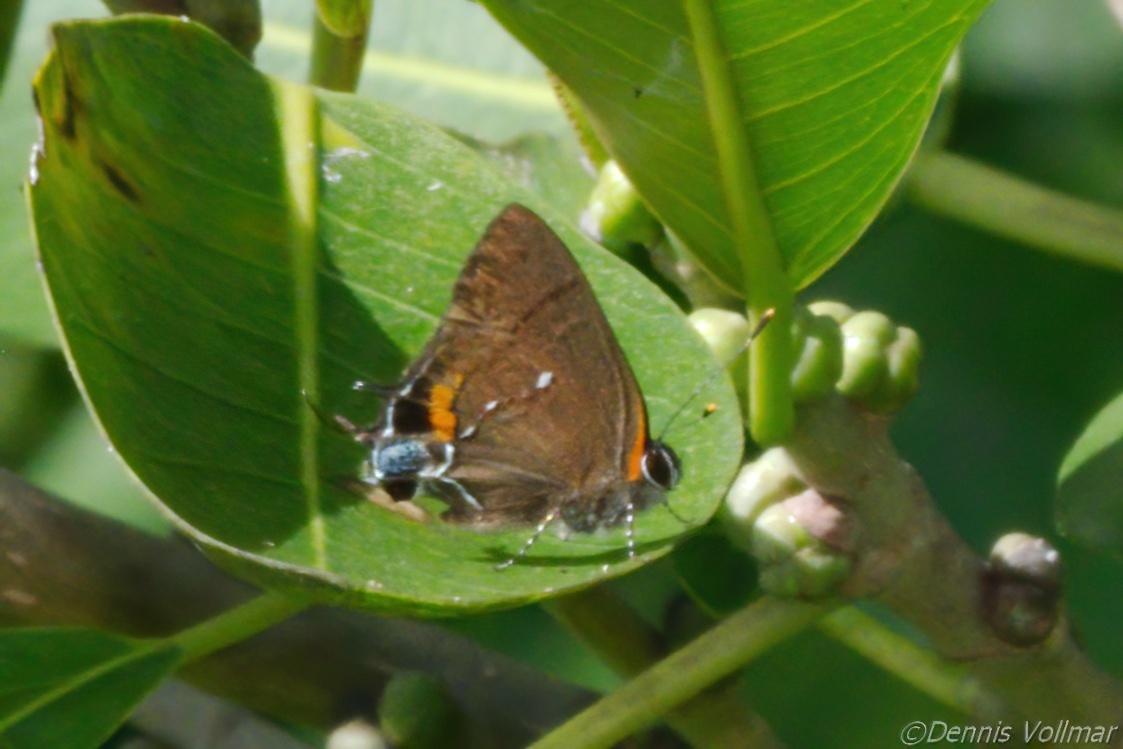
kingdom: Animalia
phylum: Arthropoda
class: Insecta
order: Lepidoptera
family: Lycaenidae
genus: Thecla
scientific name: Thecla angelia
